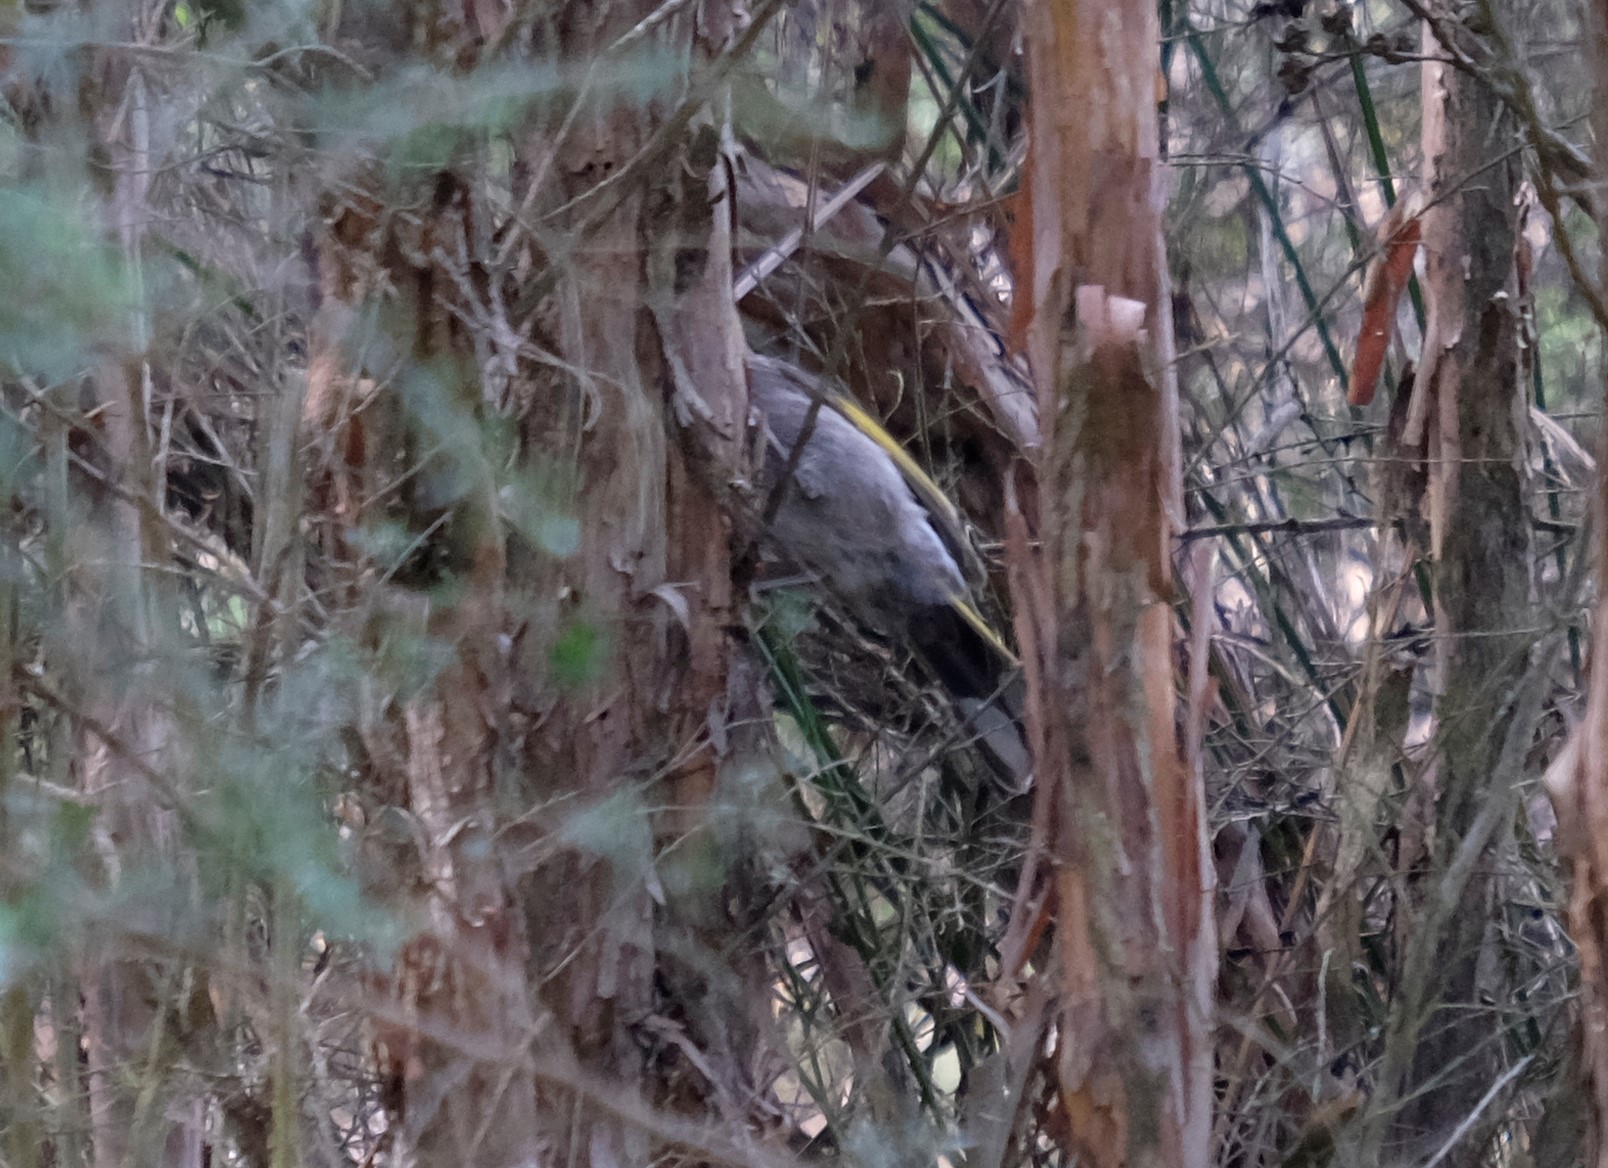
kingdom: Animalia
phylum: Chordata
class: Aves
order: Passeriformes
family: Meliphagidae
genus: Phylidonyris
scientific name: Phylidonyris pyrrhopterus
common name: Crescent honeyeater
